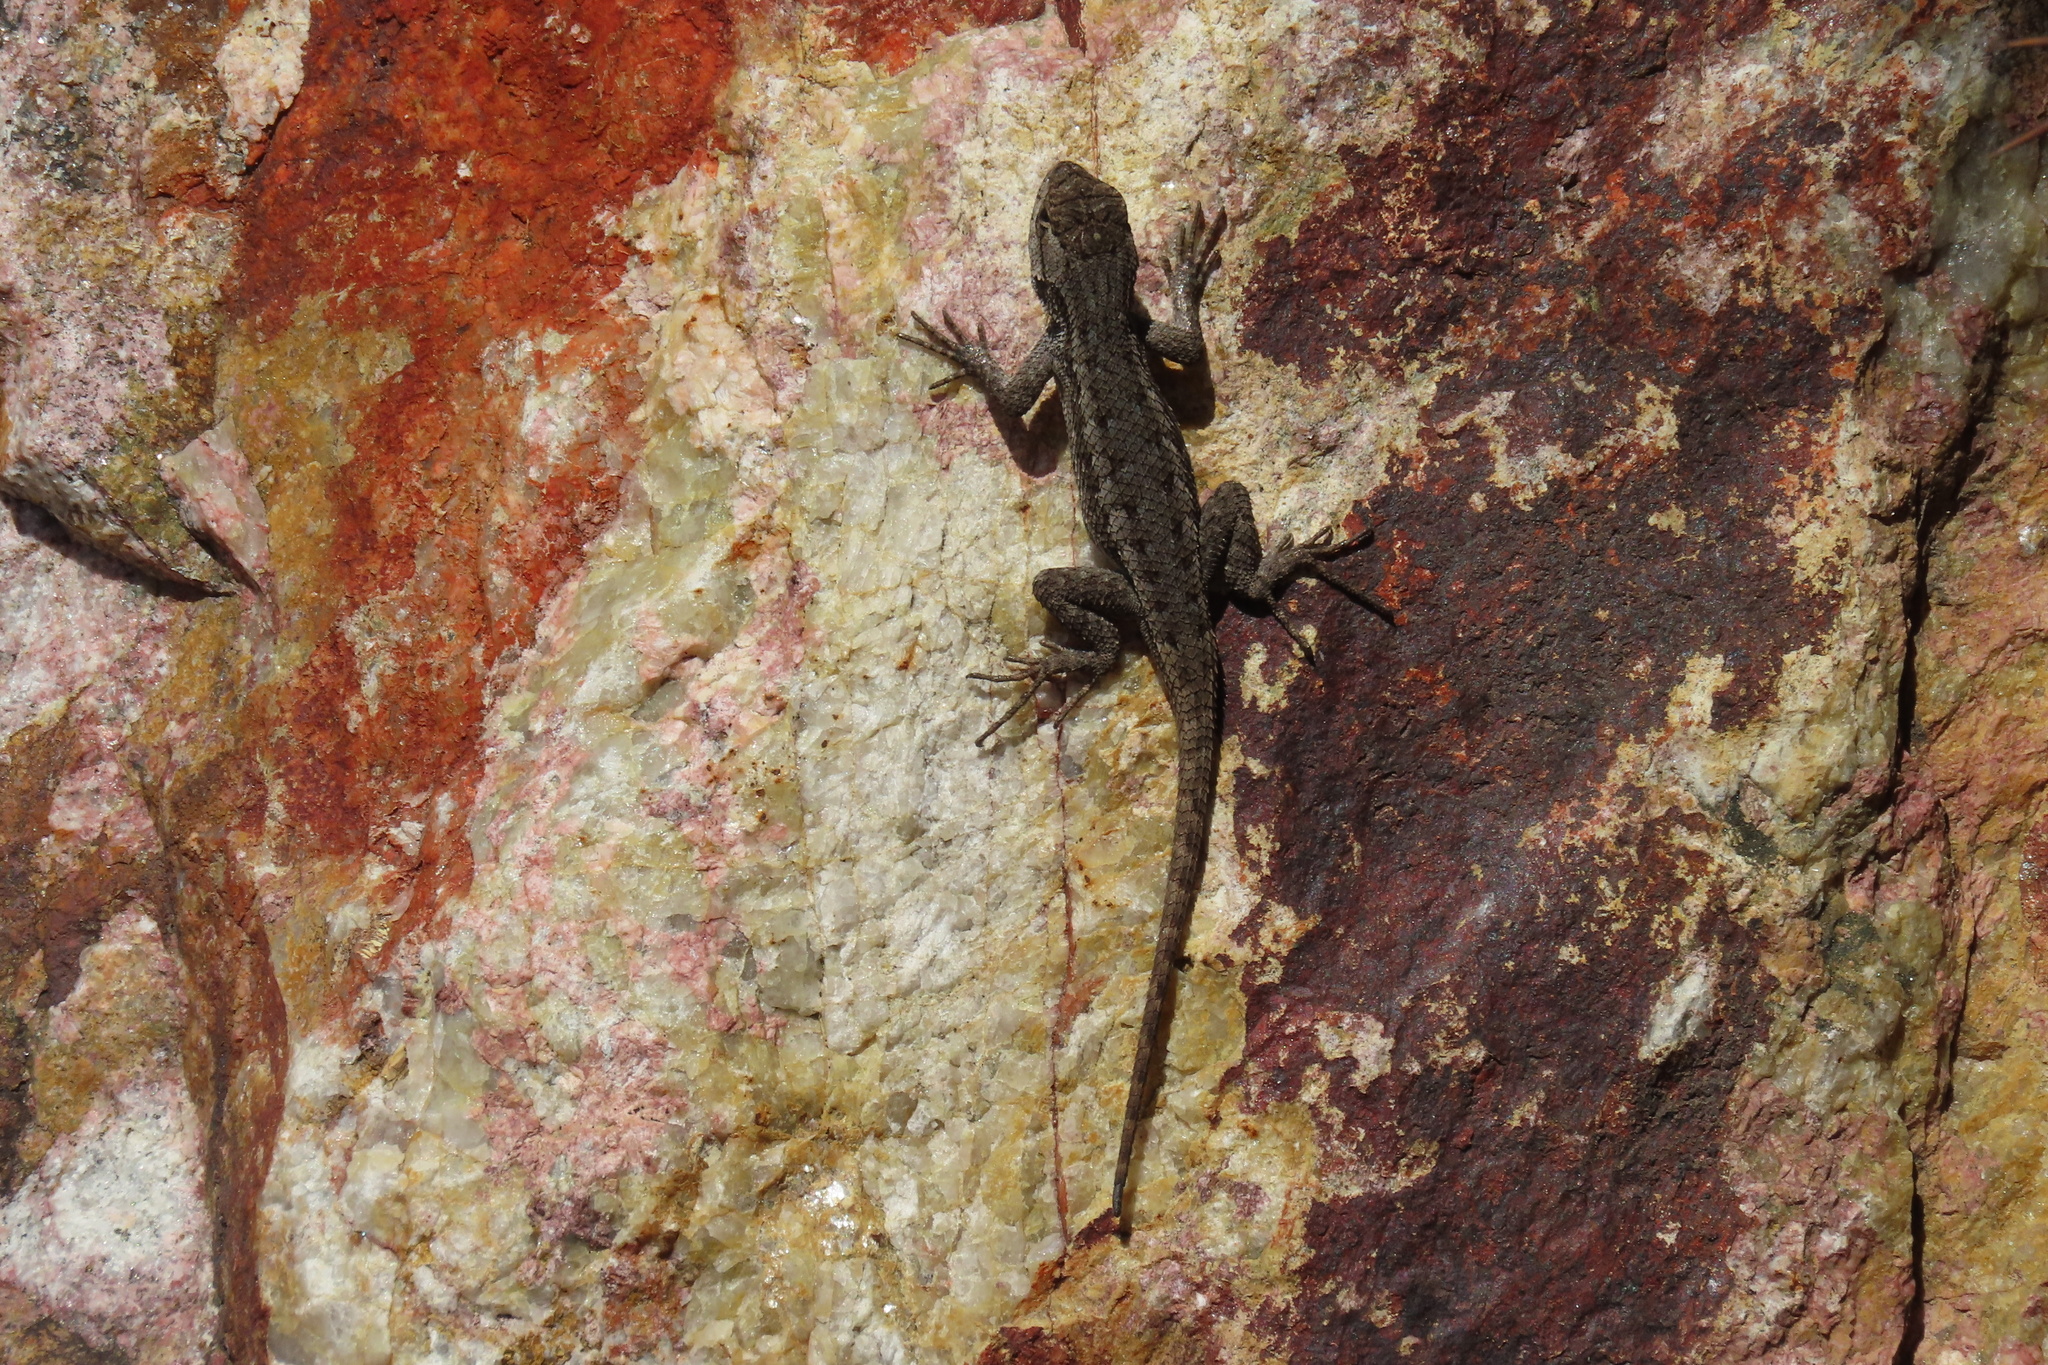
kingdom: Animalia
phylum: Chordata
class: Squamata
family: Phrynosomatidae
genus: Sceloporus
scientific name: Sceloporus occidentalis
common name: Western fence lizard
